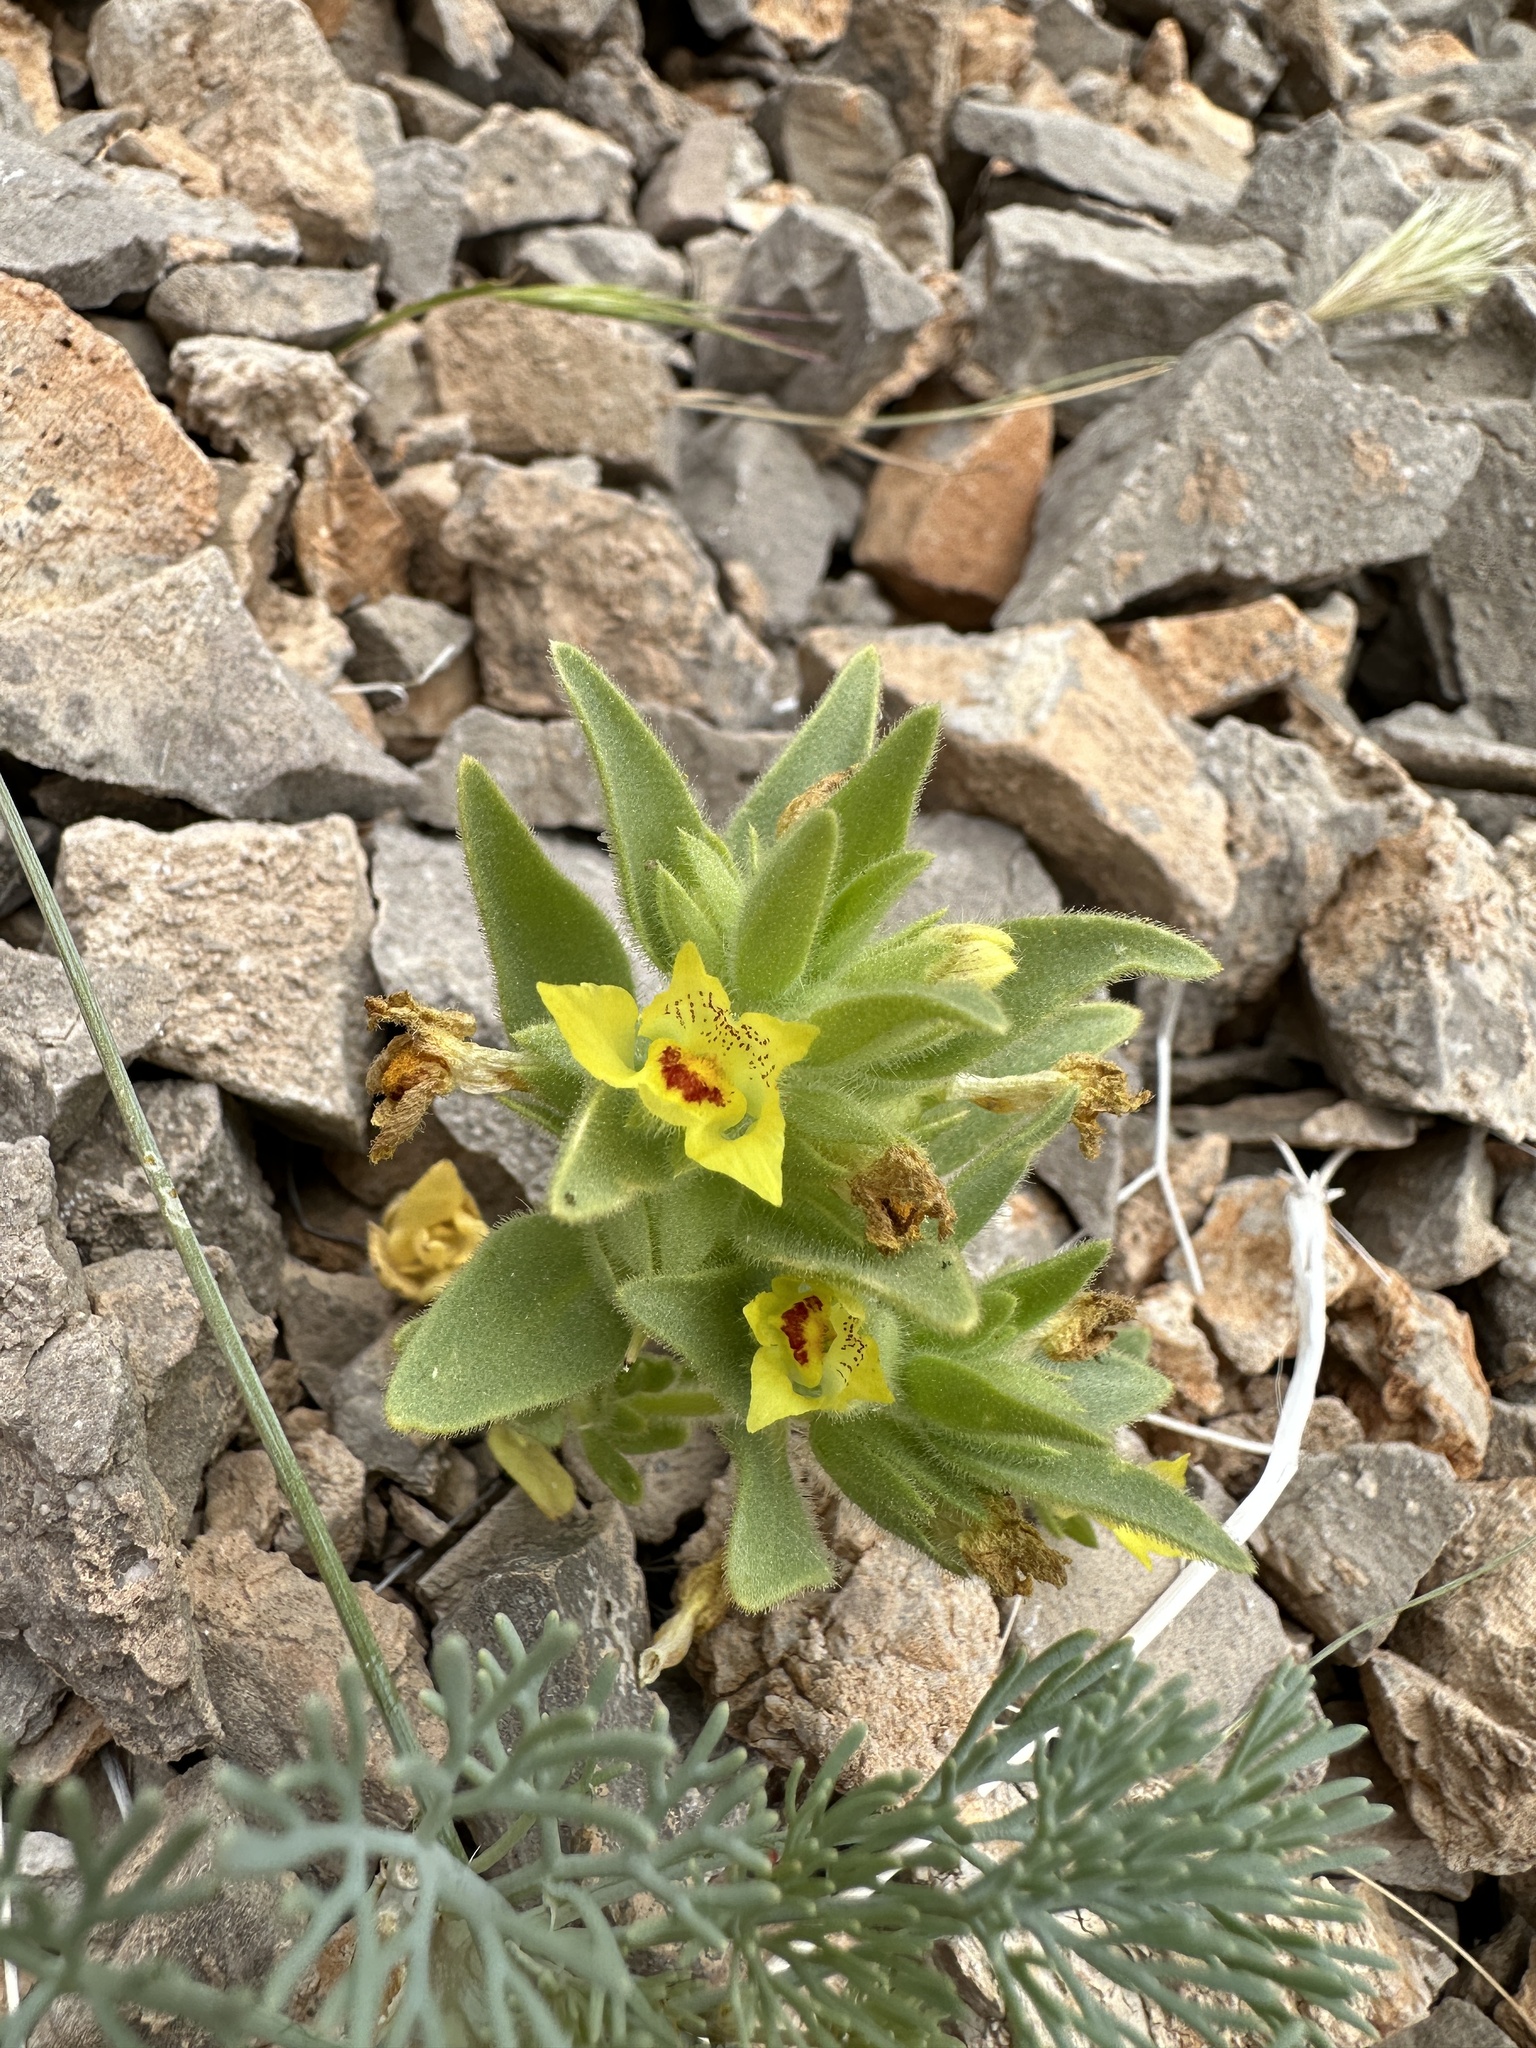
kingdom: Plantae
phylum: Tracheophyta
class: Magnoliopsida
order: Lamiales
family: Plantaginaceae
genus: Mohavea
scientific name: Mohavea breviflora
